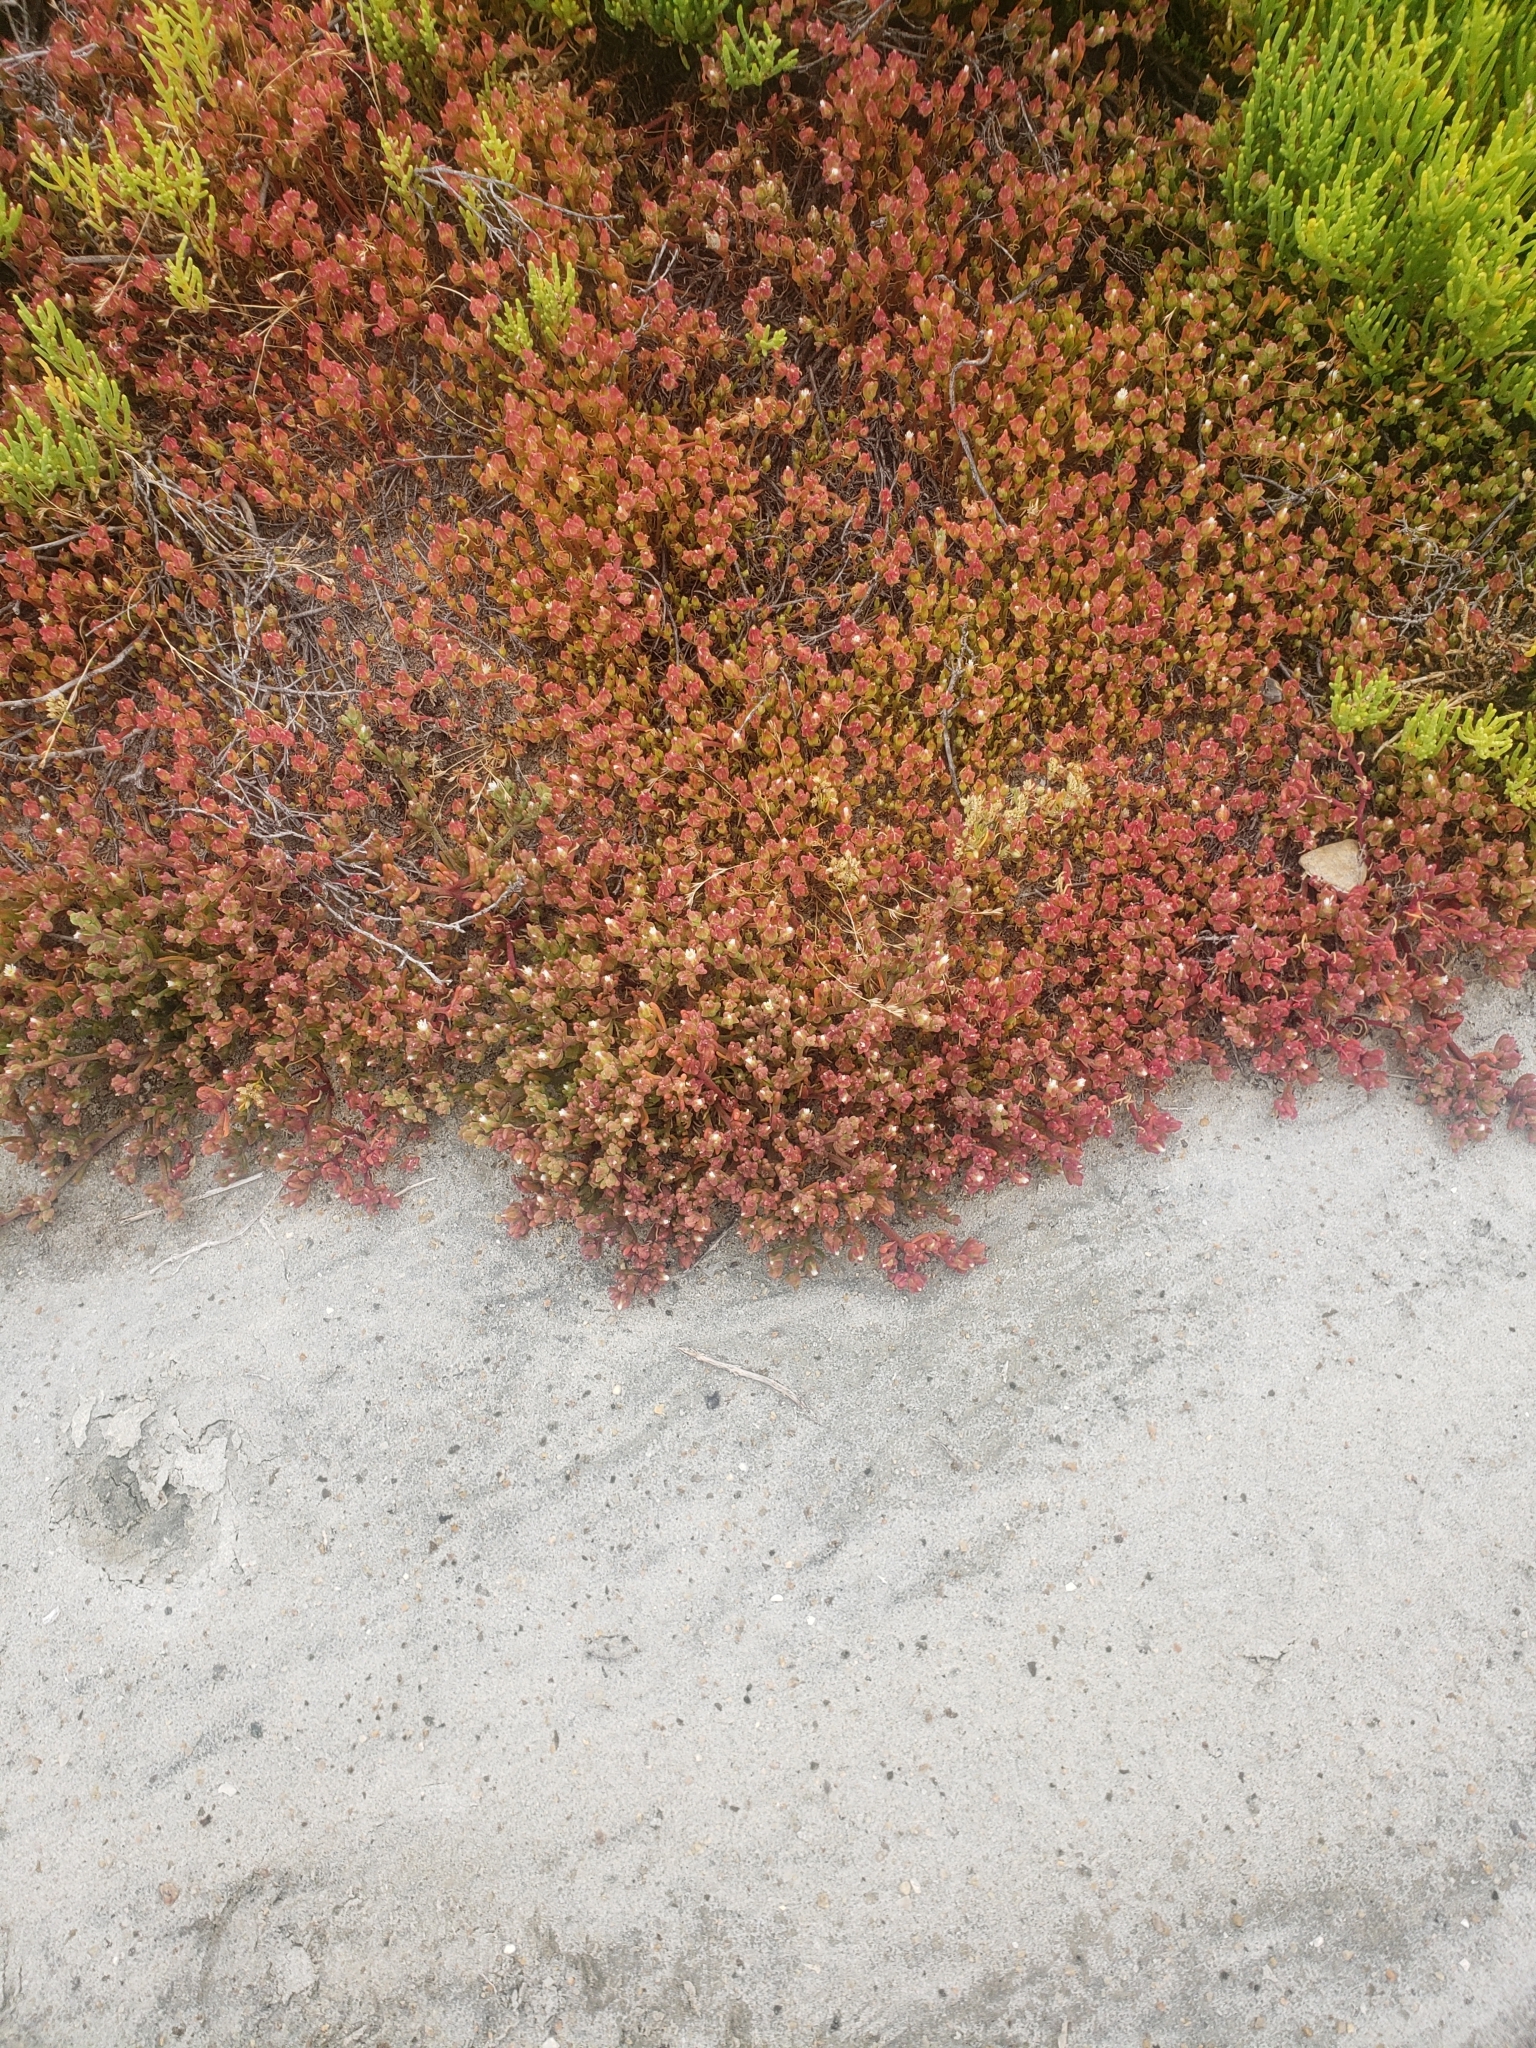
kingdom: Plantae
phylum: Tracheophyta
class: Magnoliopsida
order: Caryophyllales
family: Aizoaceae
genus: Mesembryanthemum
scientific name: Mesembryanthemum nodiflorum
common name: Slenderleaf iceplant
